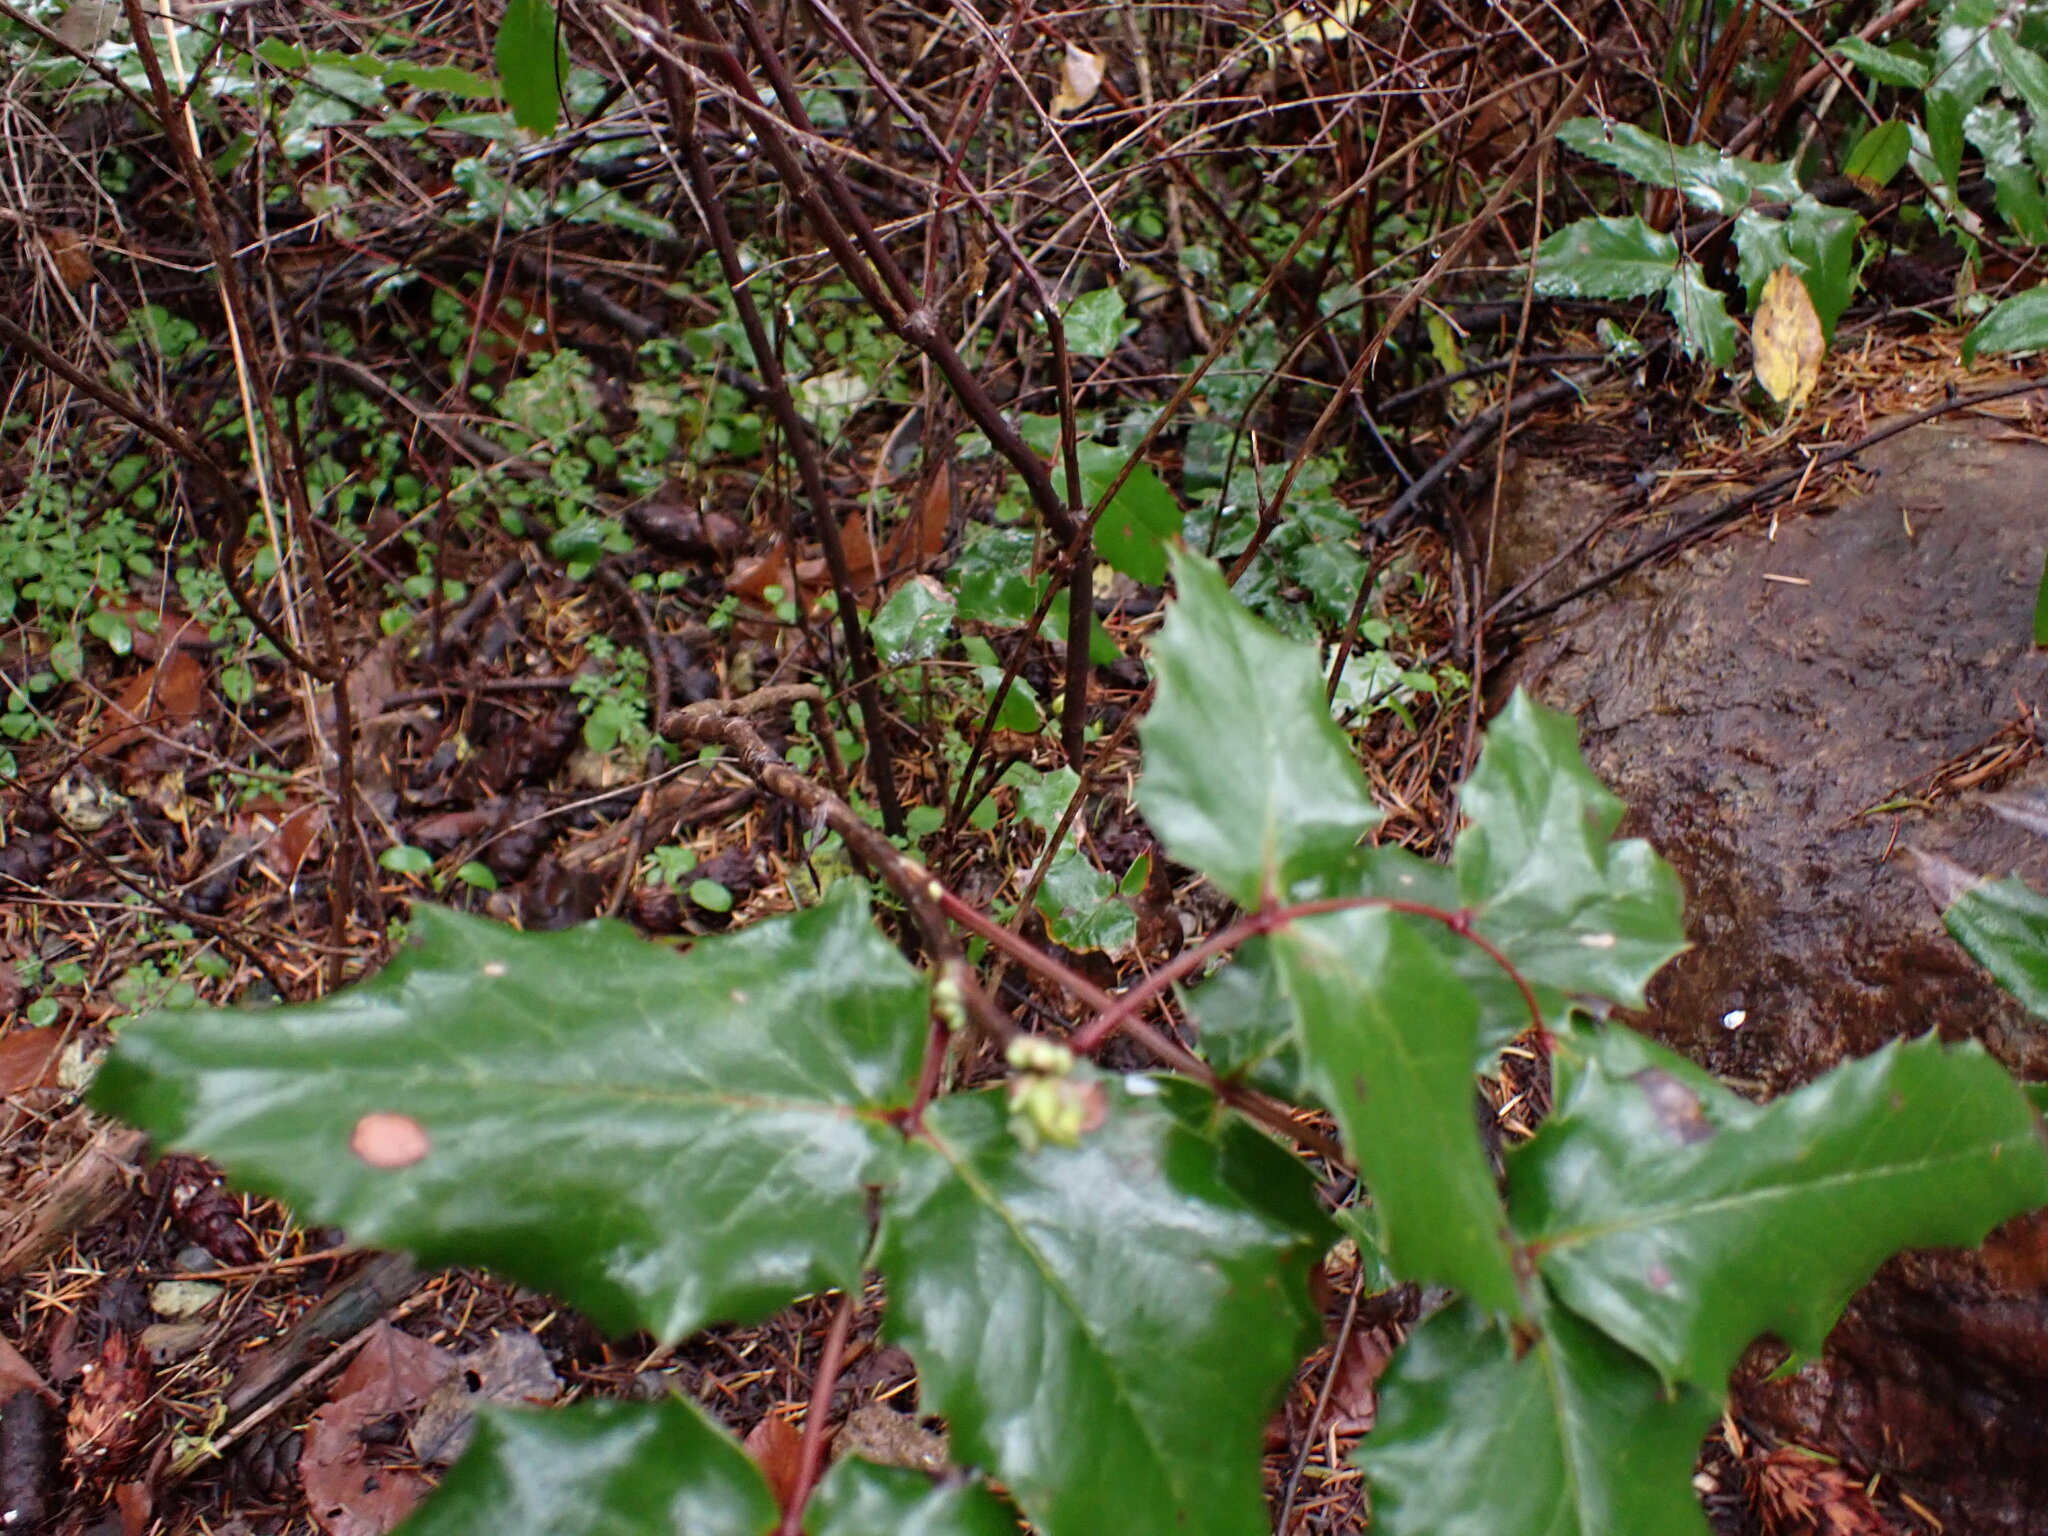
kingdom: Plantae
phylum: Tracheophyta
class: Magnoliopsida
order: Ranunculales
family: Berberidaceae
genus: Mahonia
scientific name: Mahonia aquifolium
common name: Oregon-grape
